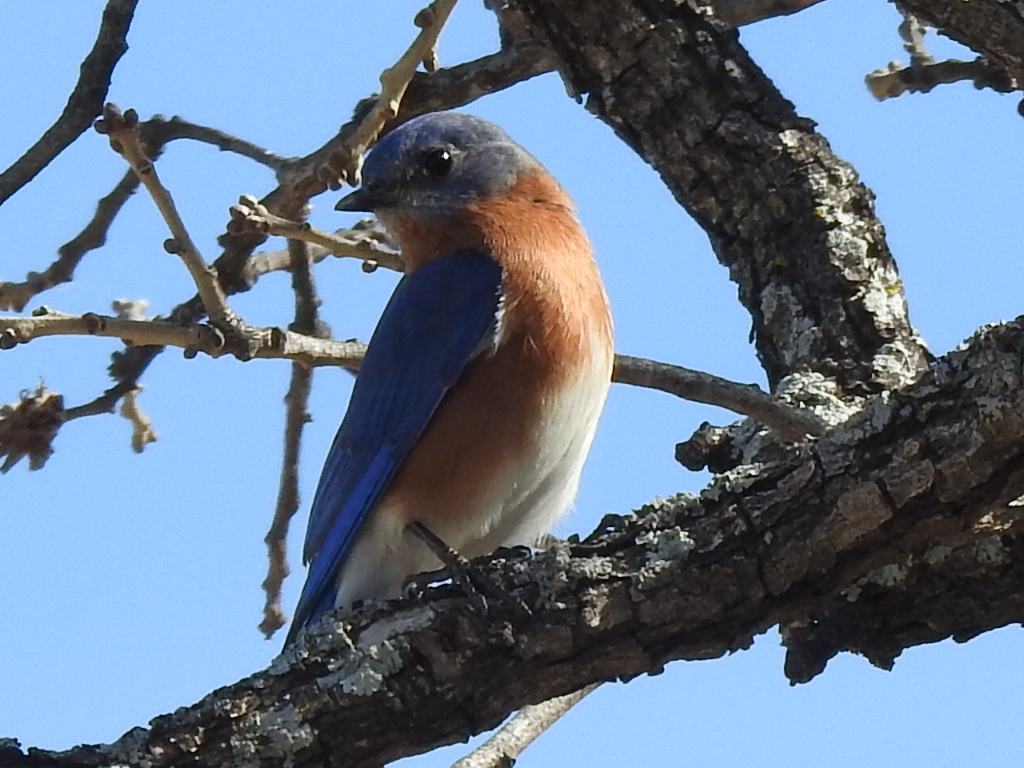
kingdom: Animalia
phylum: Chordata
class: Aves
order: Passeriformes
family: Turdidae
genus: Sialia
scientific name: Sialia sialis
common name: Eastern bluebird
